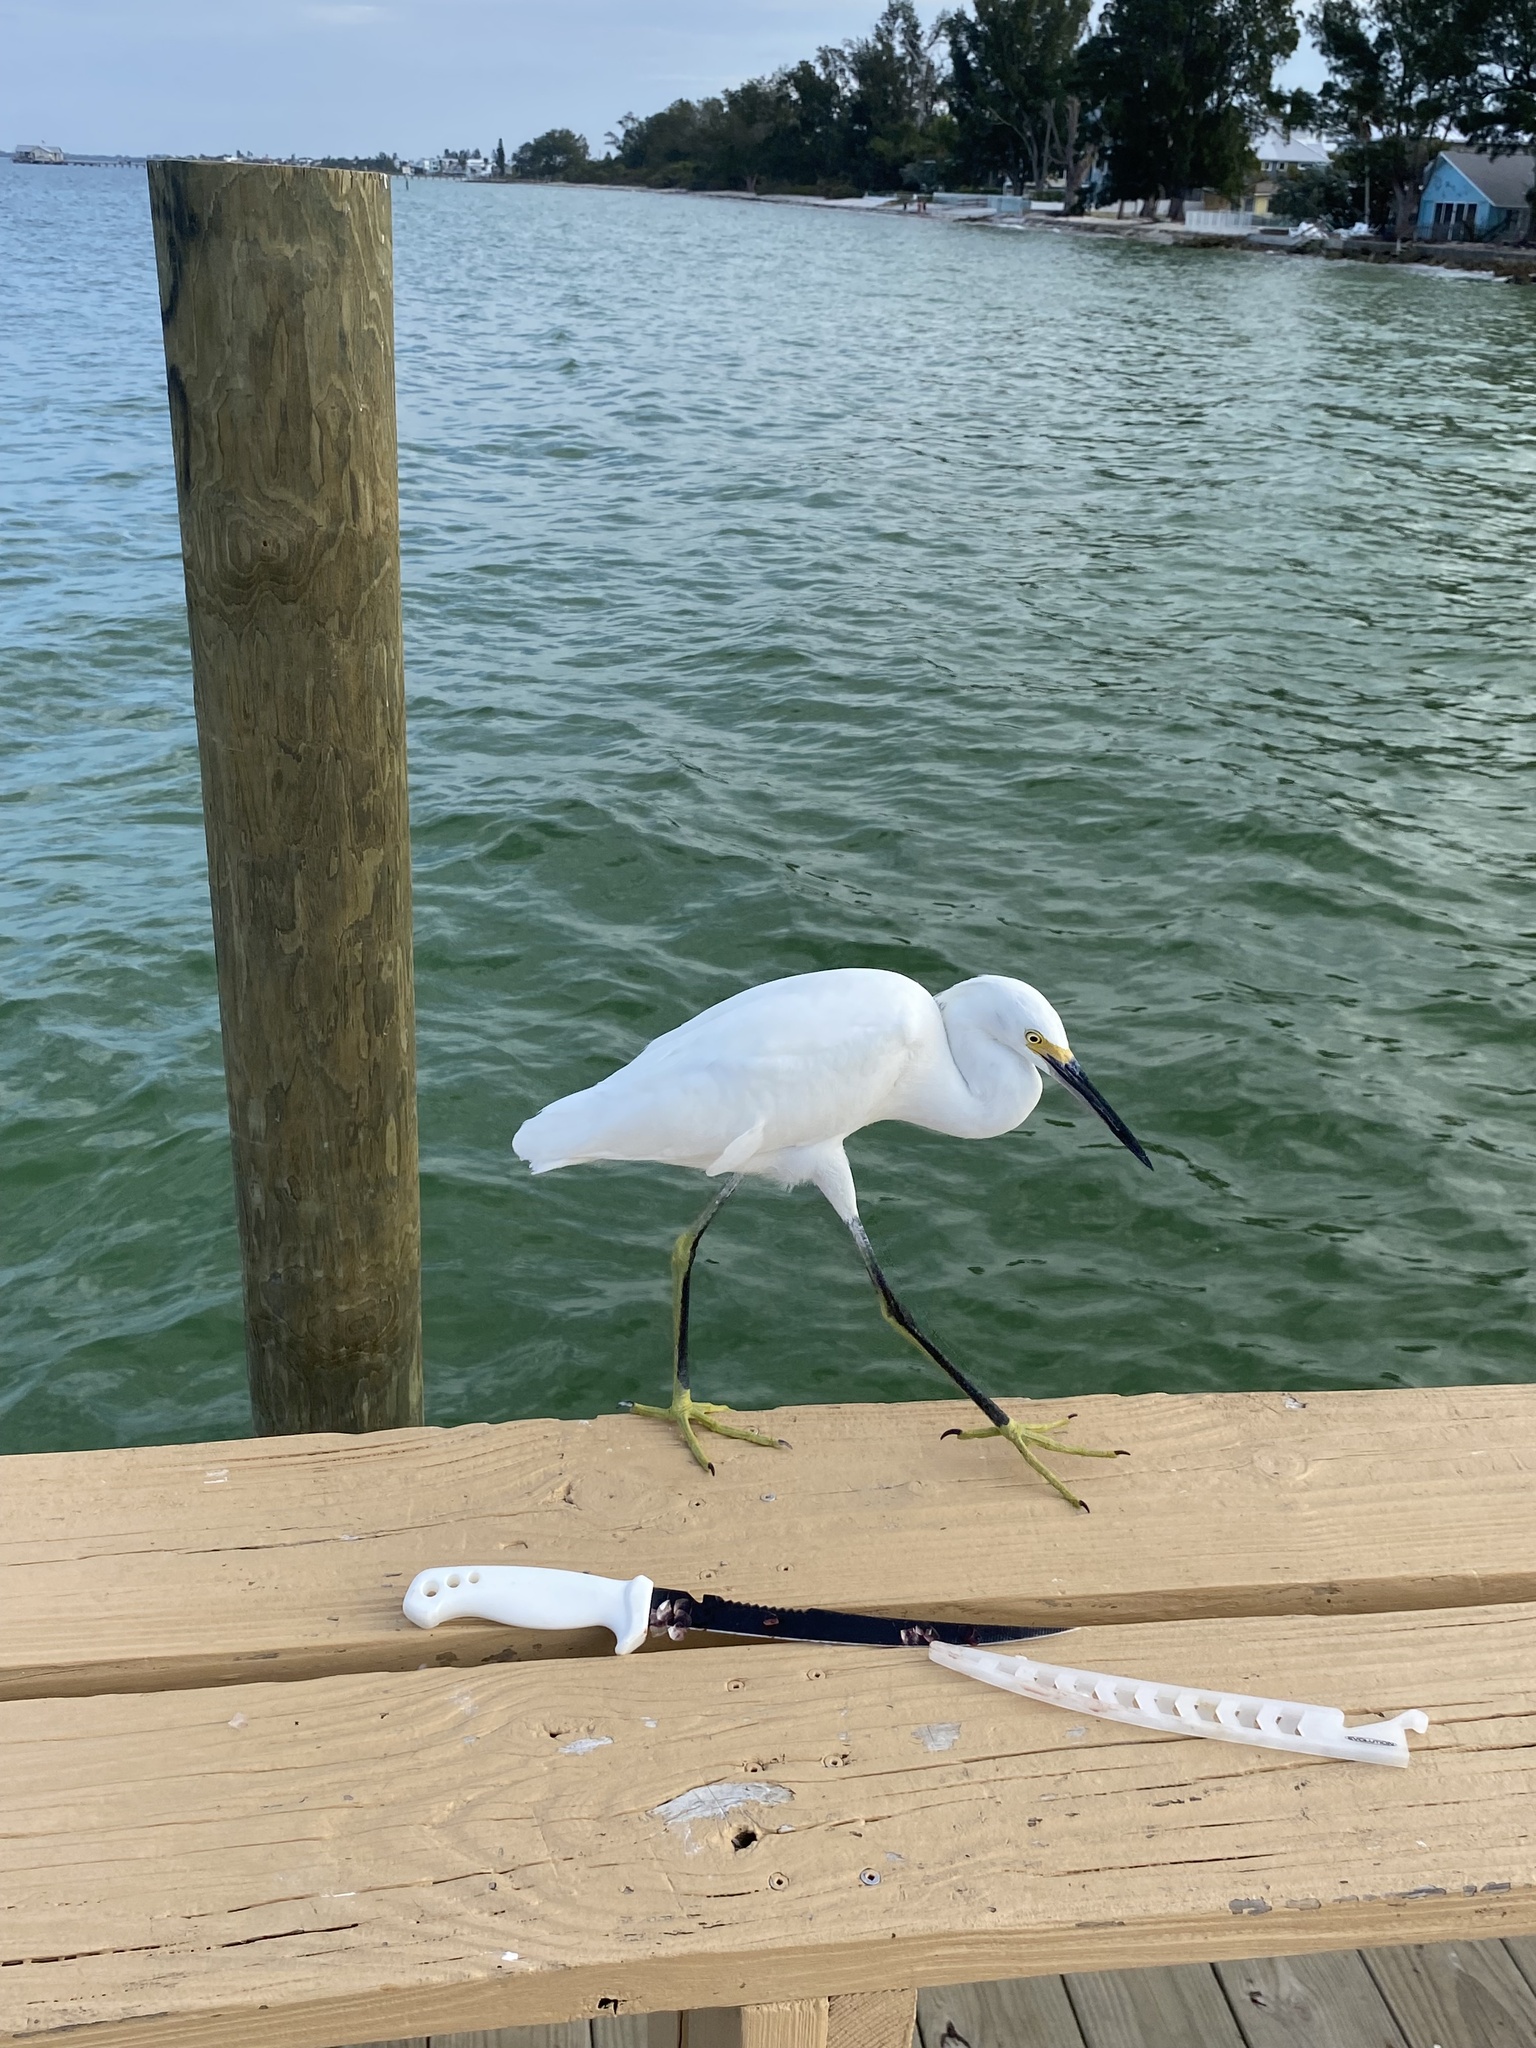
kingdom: Animalia
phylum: Chordata
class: Aves
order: Pelecaniformes
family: Ardeidae
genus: Egretta
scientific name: Egretta thula
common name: Snowy egret
